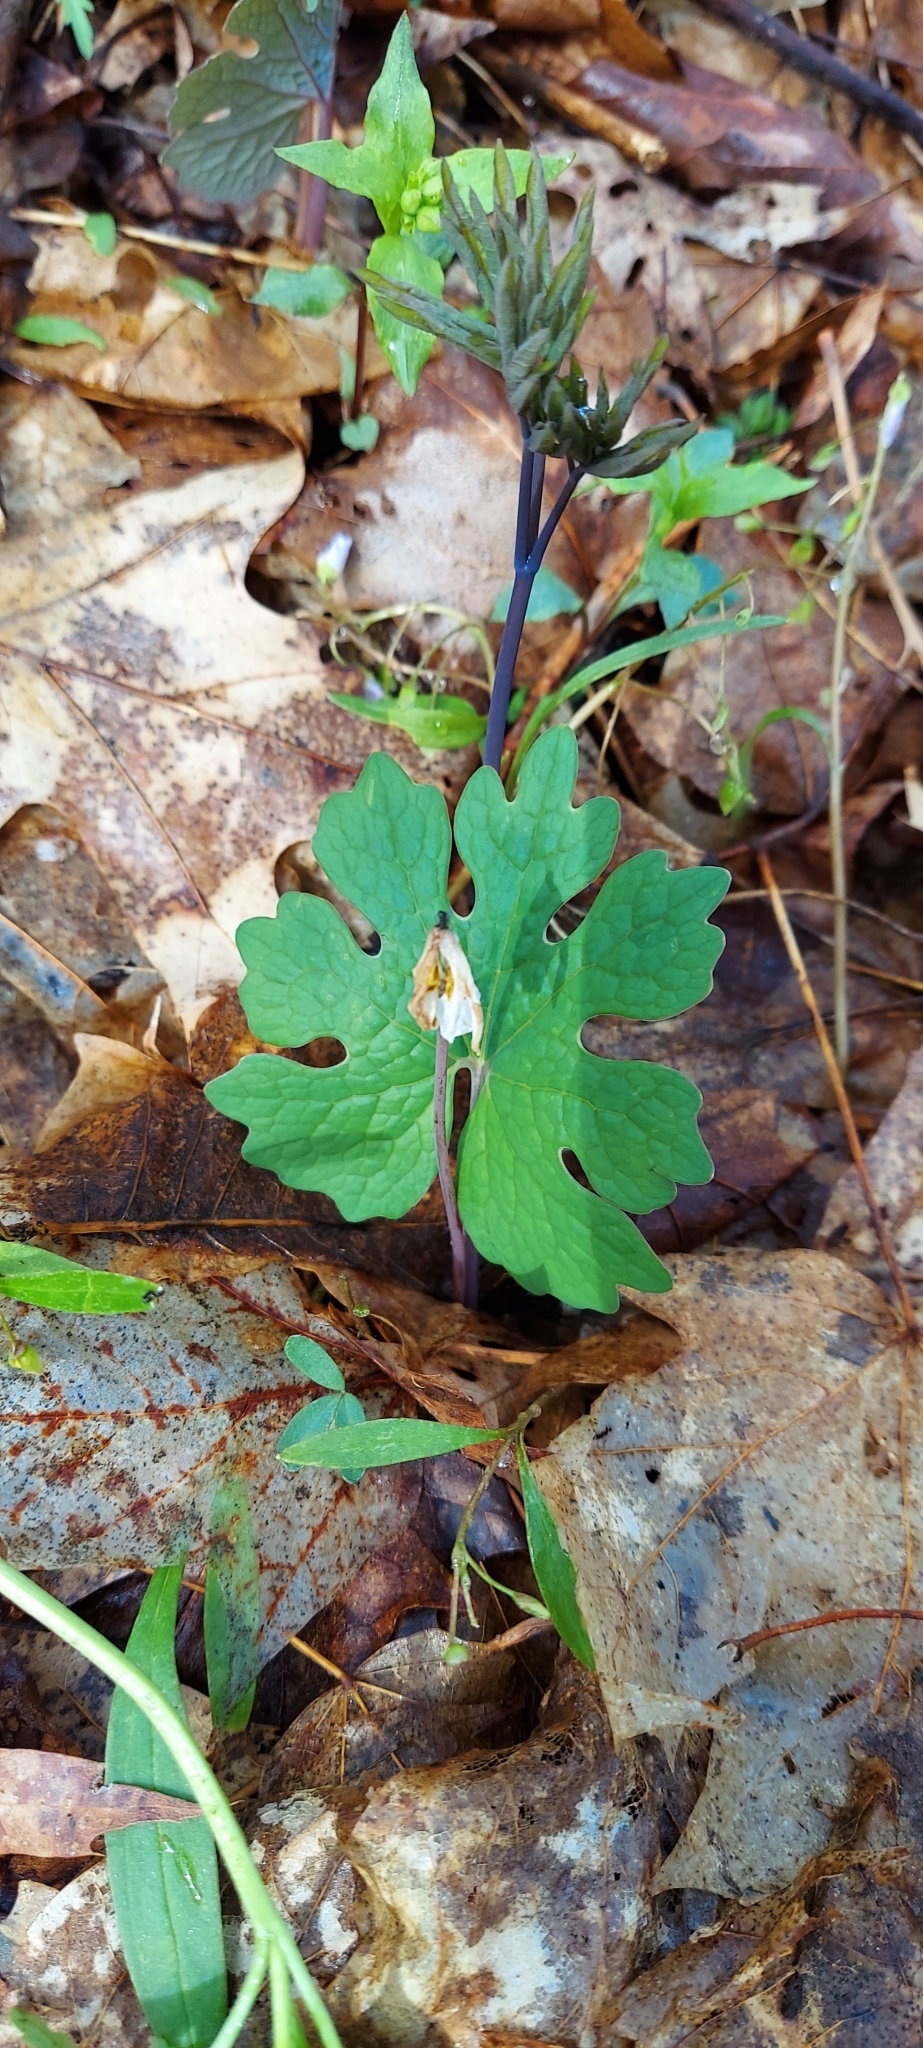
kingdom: Plantae
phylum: Tracheophyta
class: Magnoliopsida
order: Ranunculales
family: Papaveraceae
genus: Sanguinaria
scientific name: Sanguinaria canadensis
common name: Bloodroot
